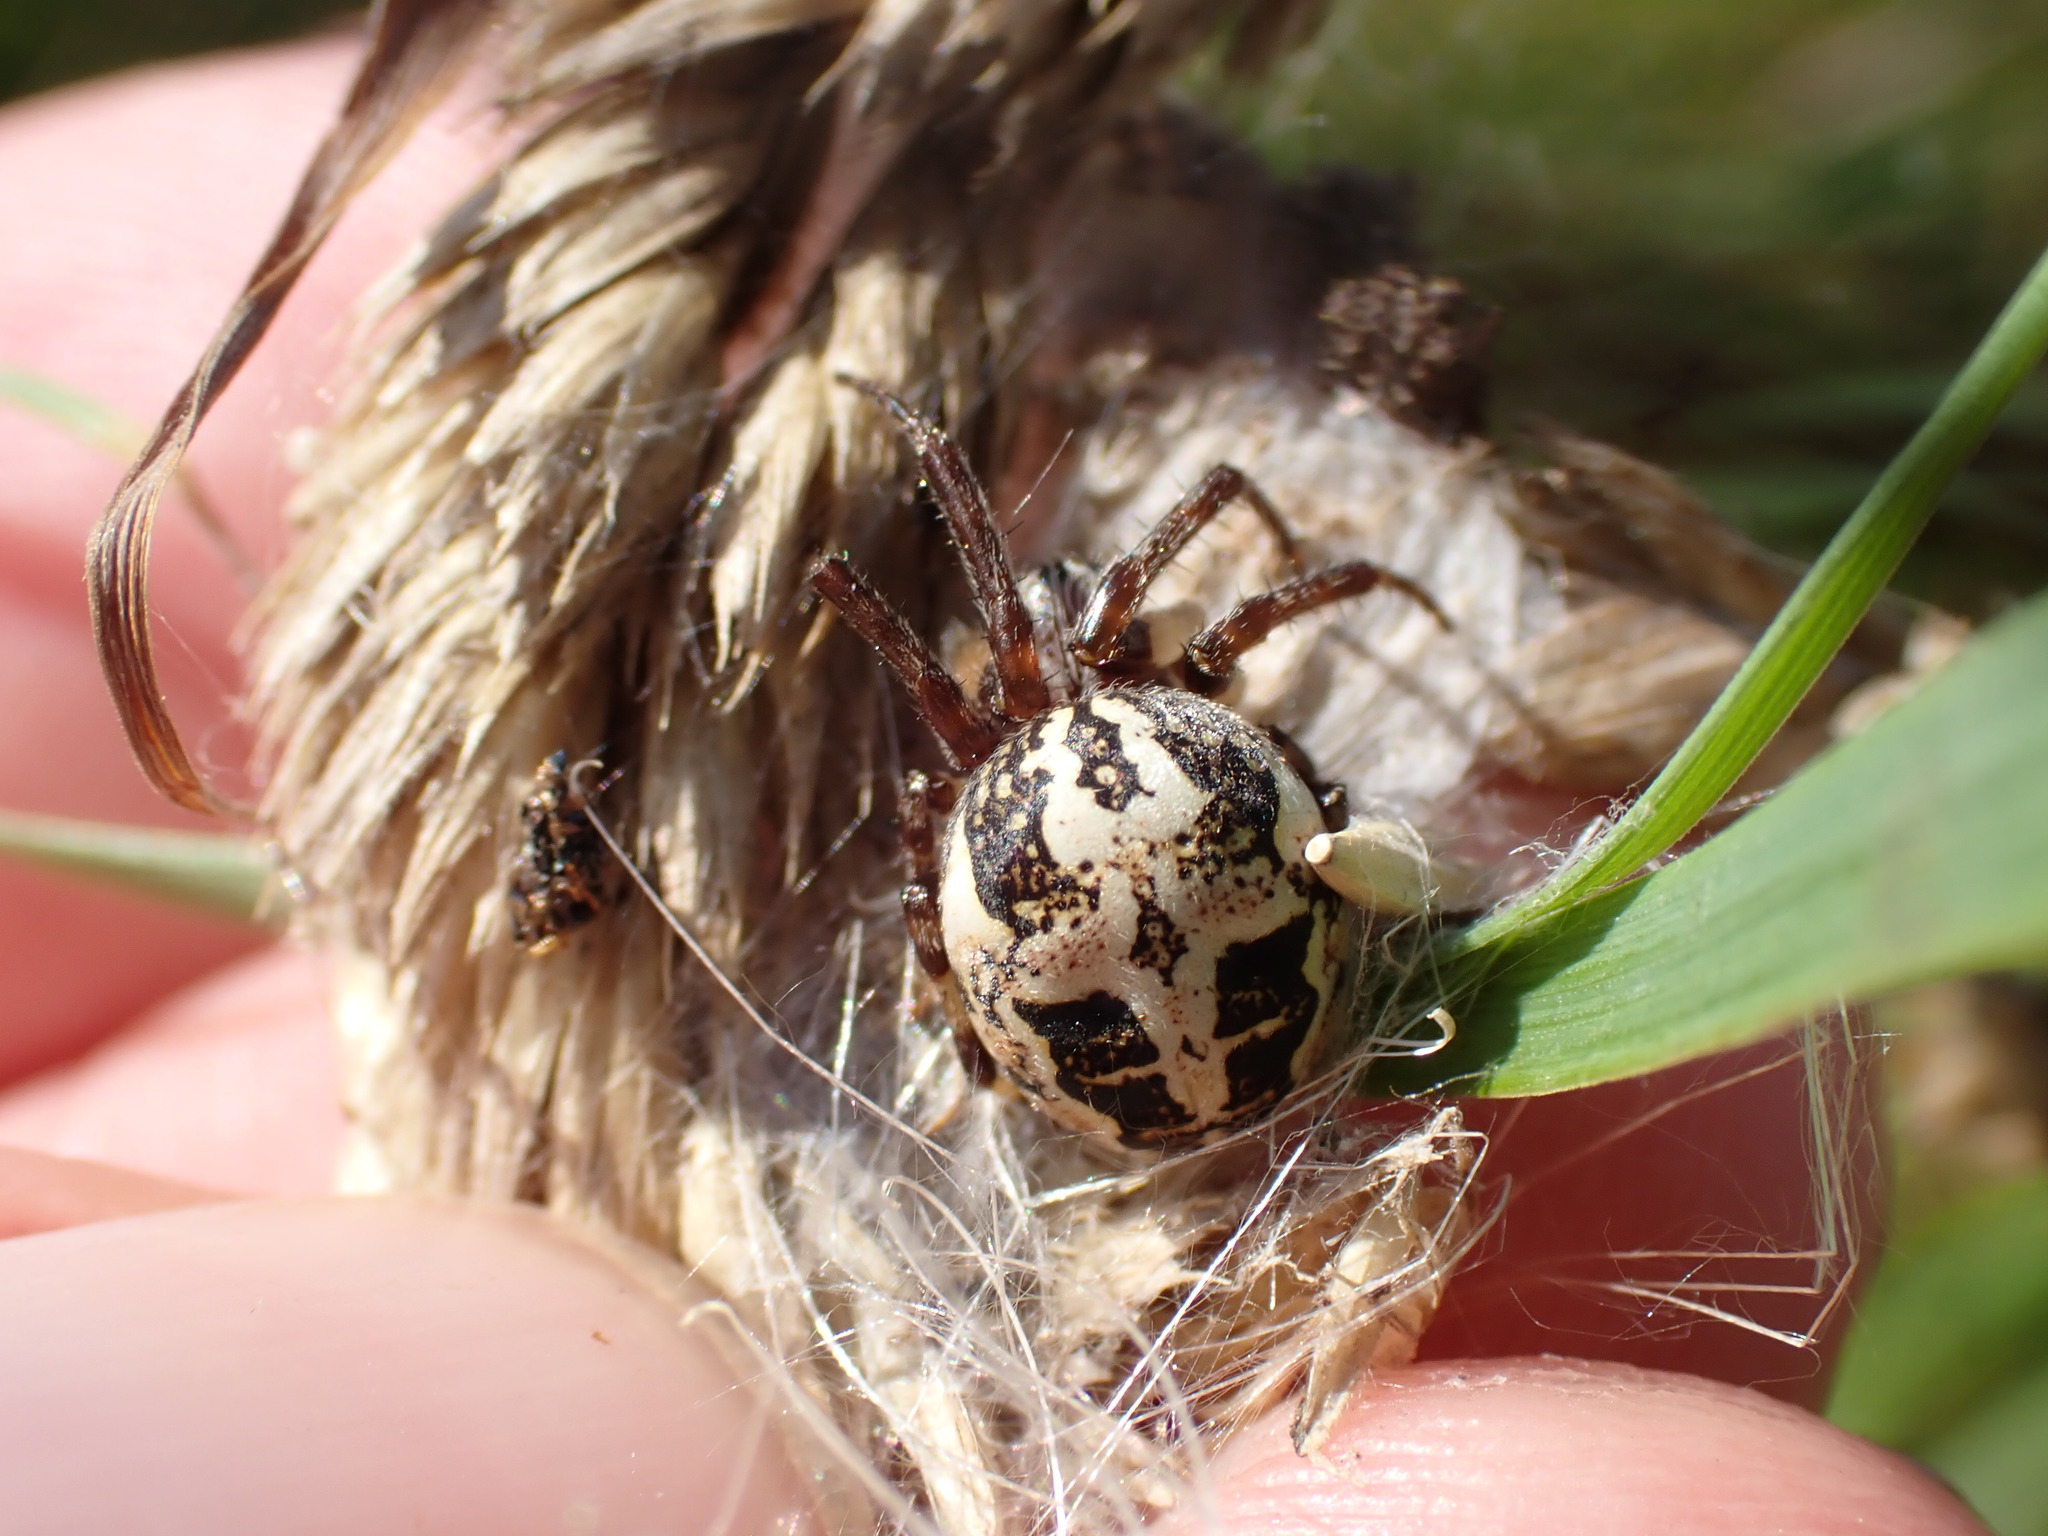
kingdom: Animalia
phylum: Arthropoda
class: Arachnida
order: Araneae
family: Araneidae
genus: Larinioides
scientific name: Larinioides cornutus
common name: Furrow orbweaver
